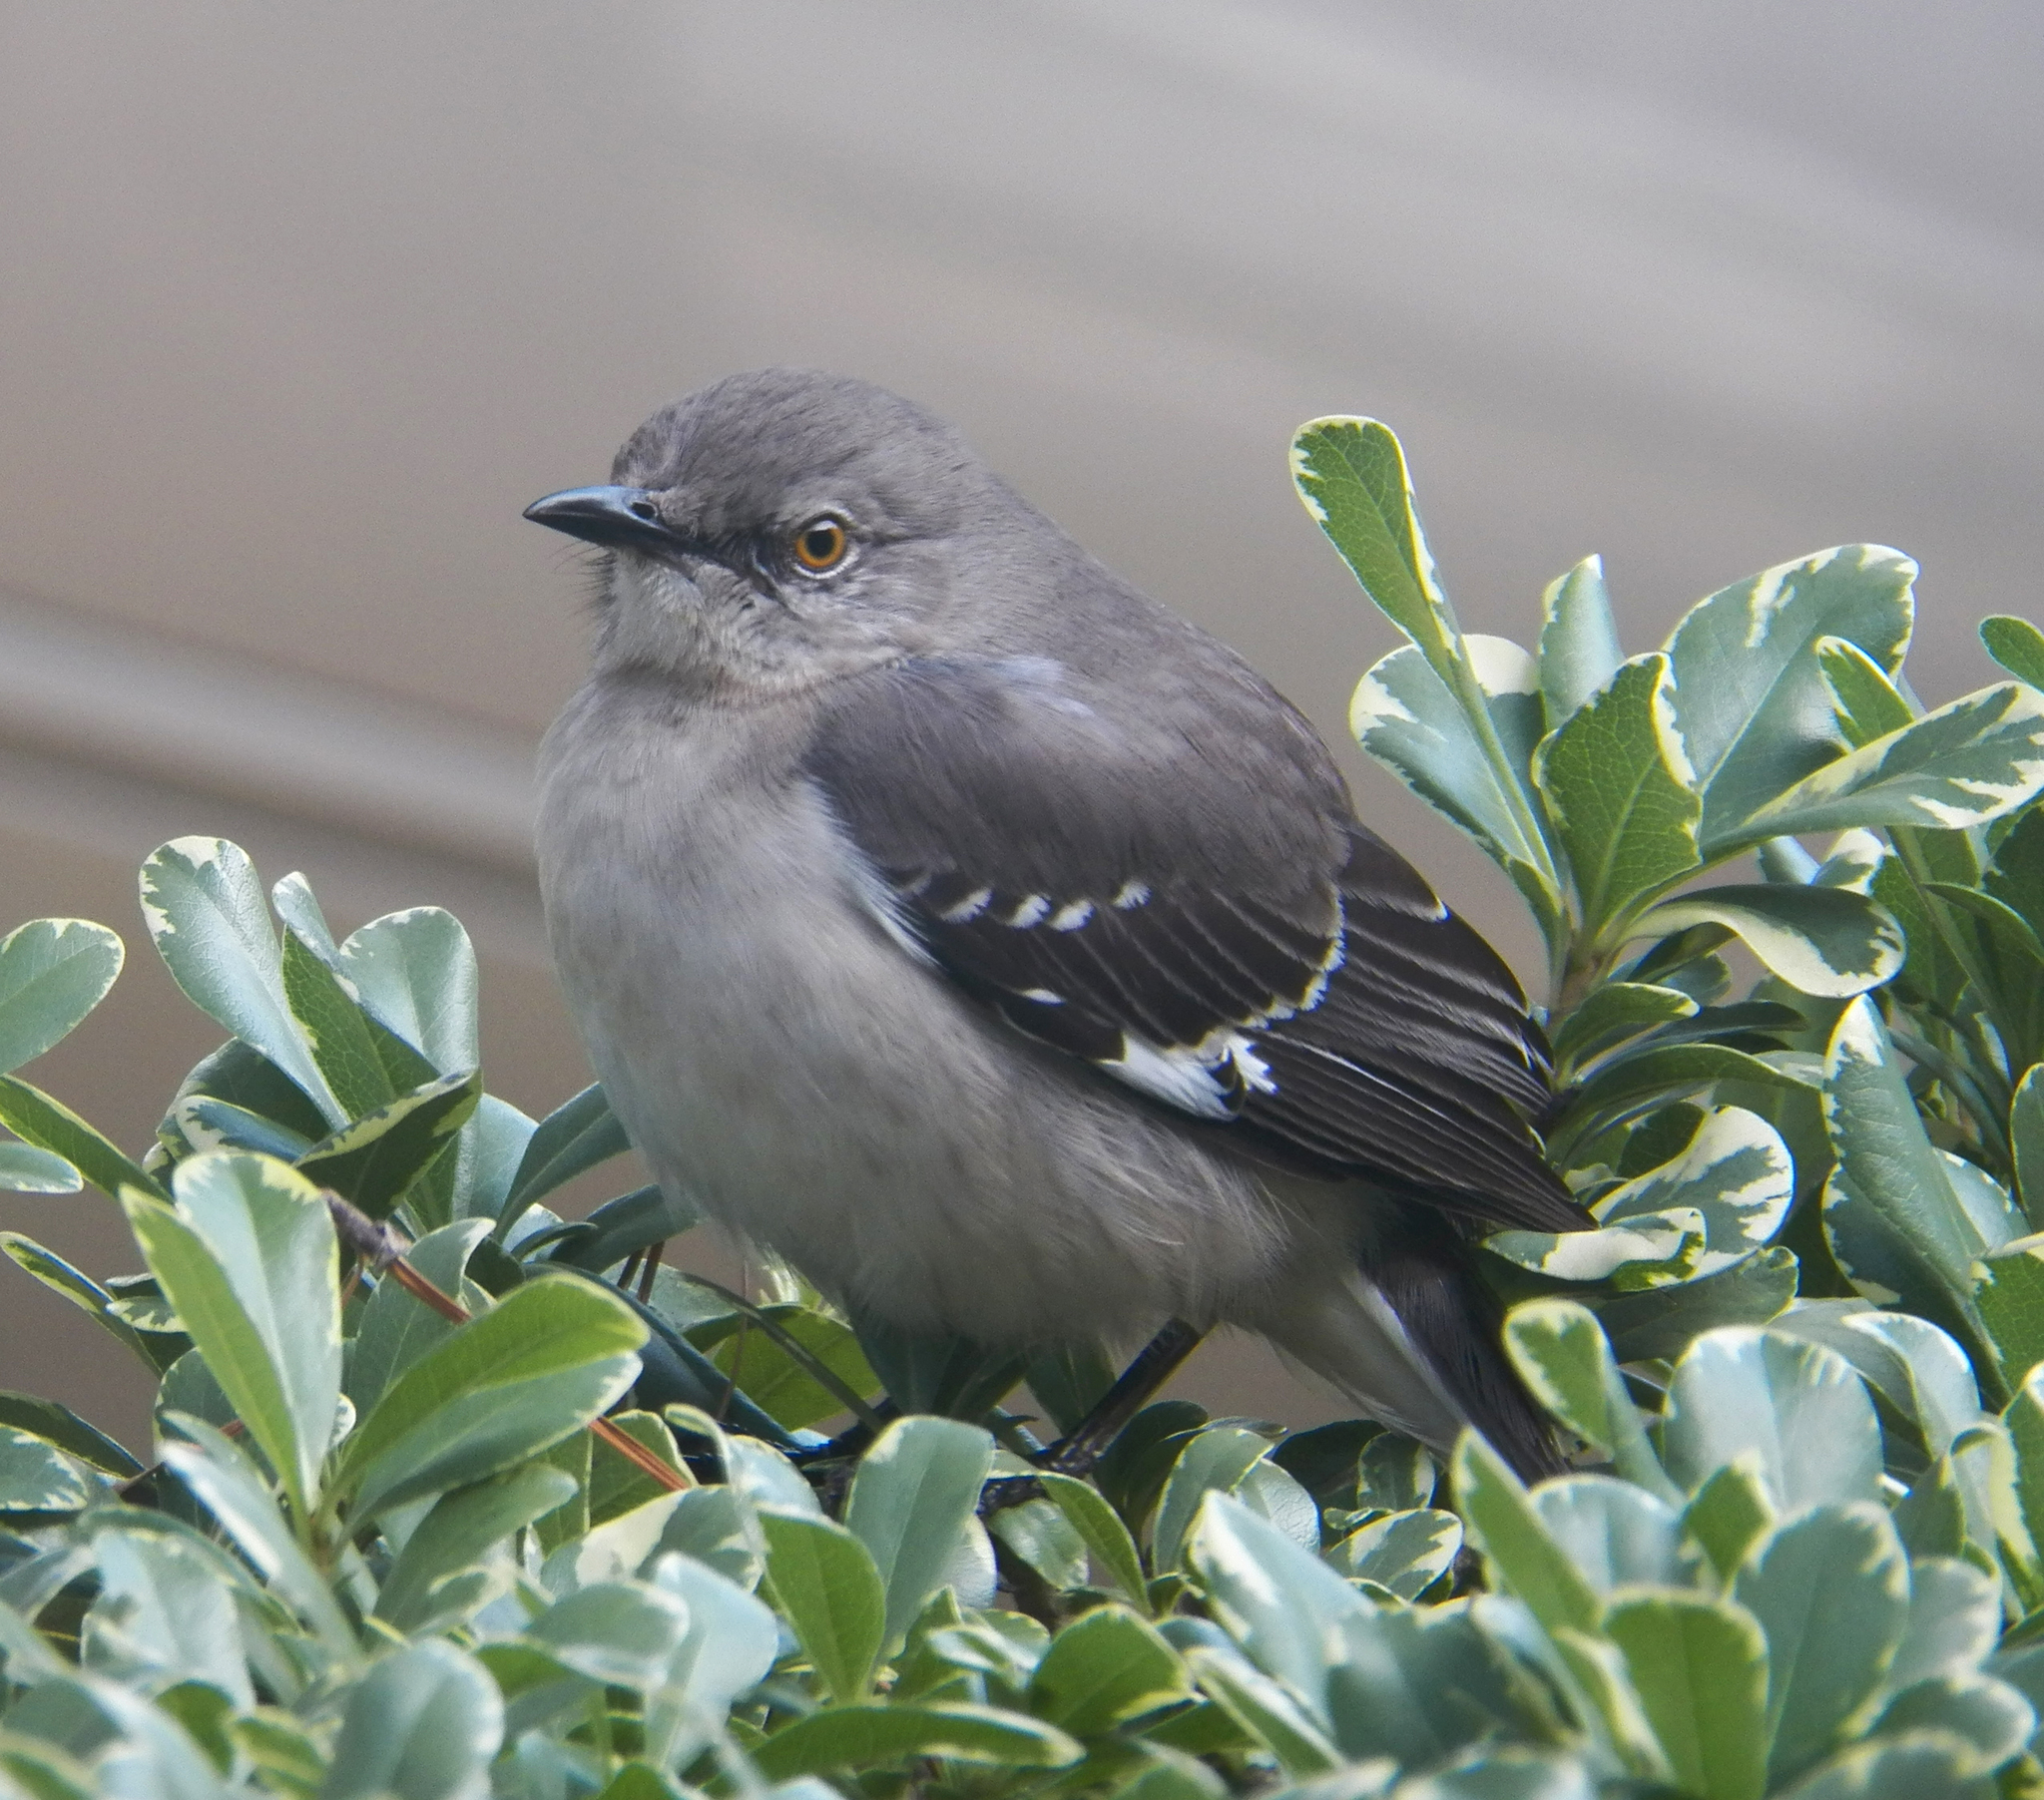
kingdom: Animalia
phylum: Chordata
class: Aves
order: Passeriformes
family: Mimidae
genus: Mimus
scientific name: Mimus polyglottos
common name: Northern mockingbird
